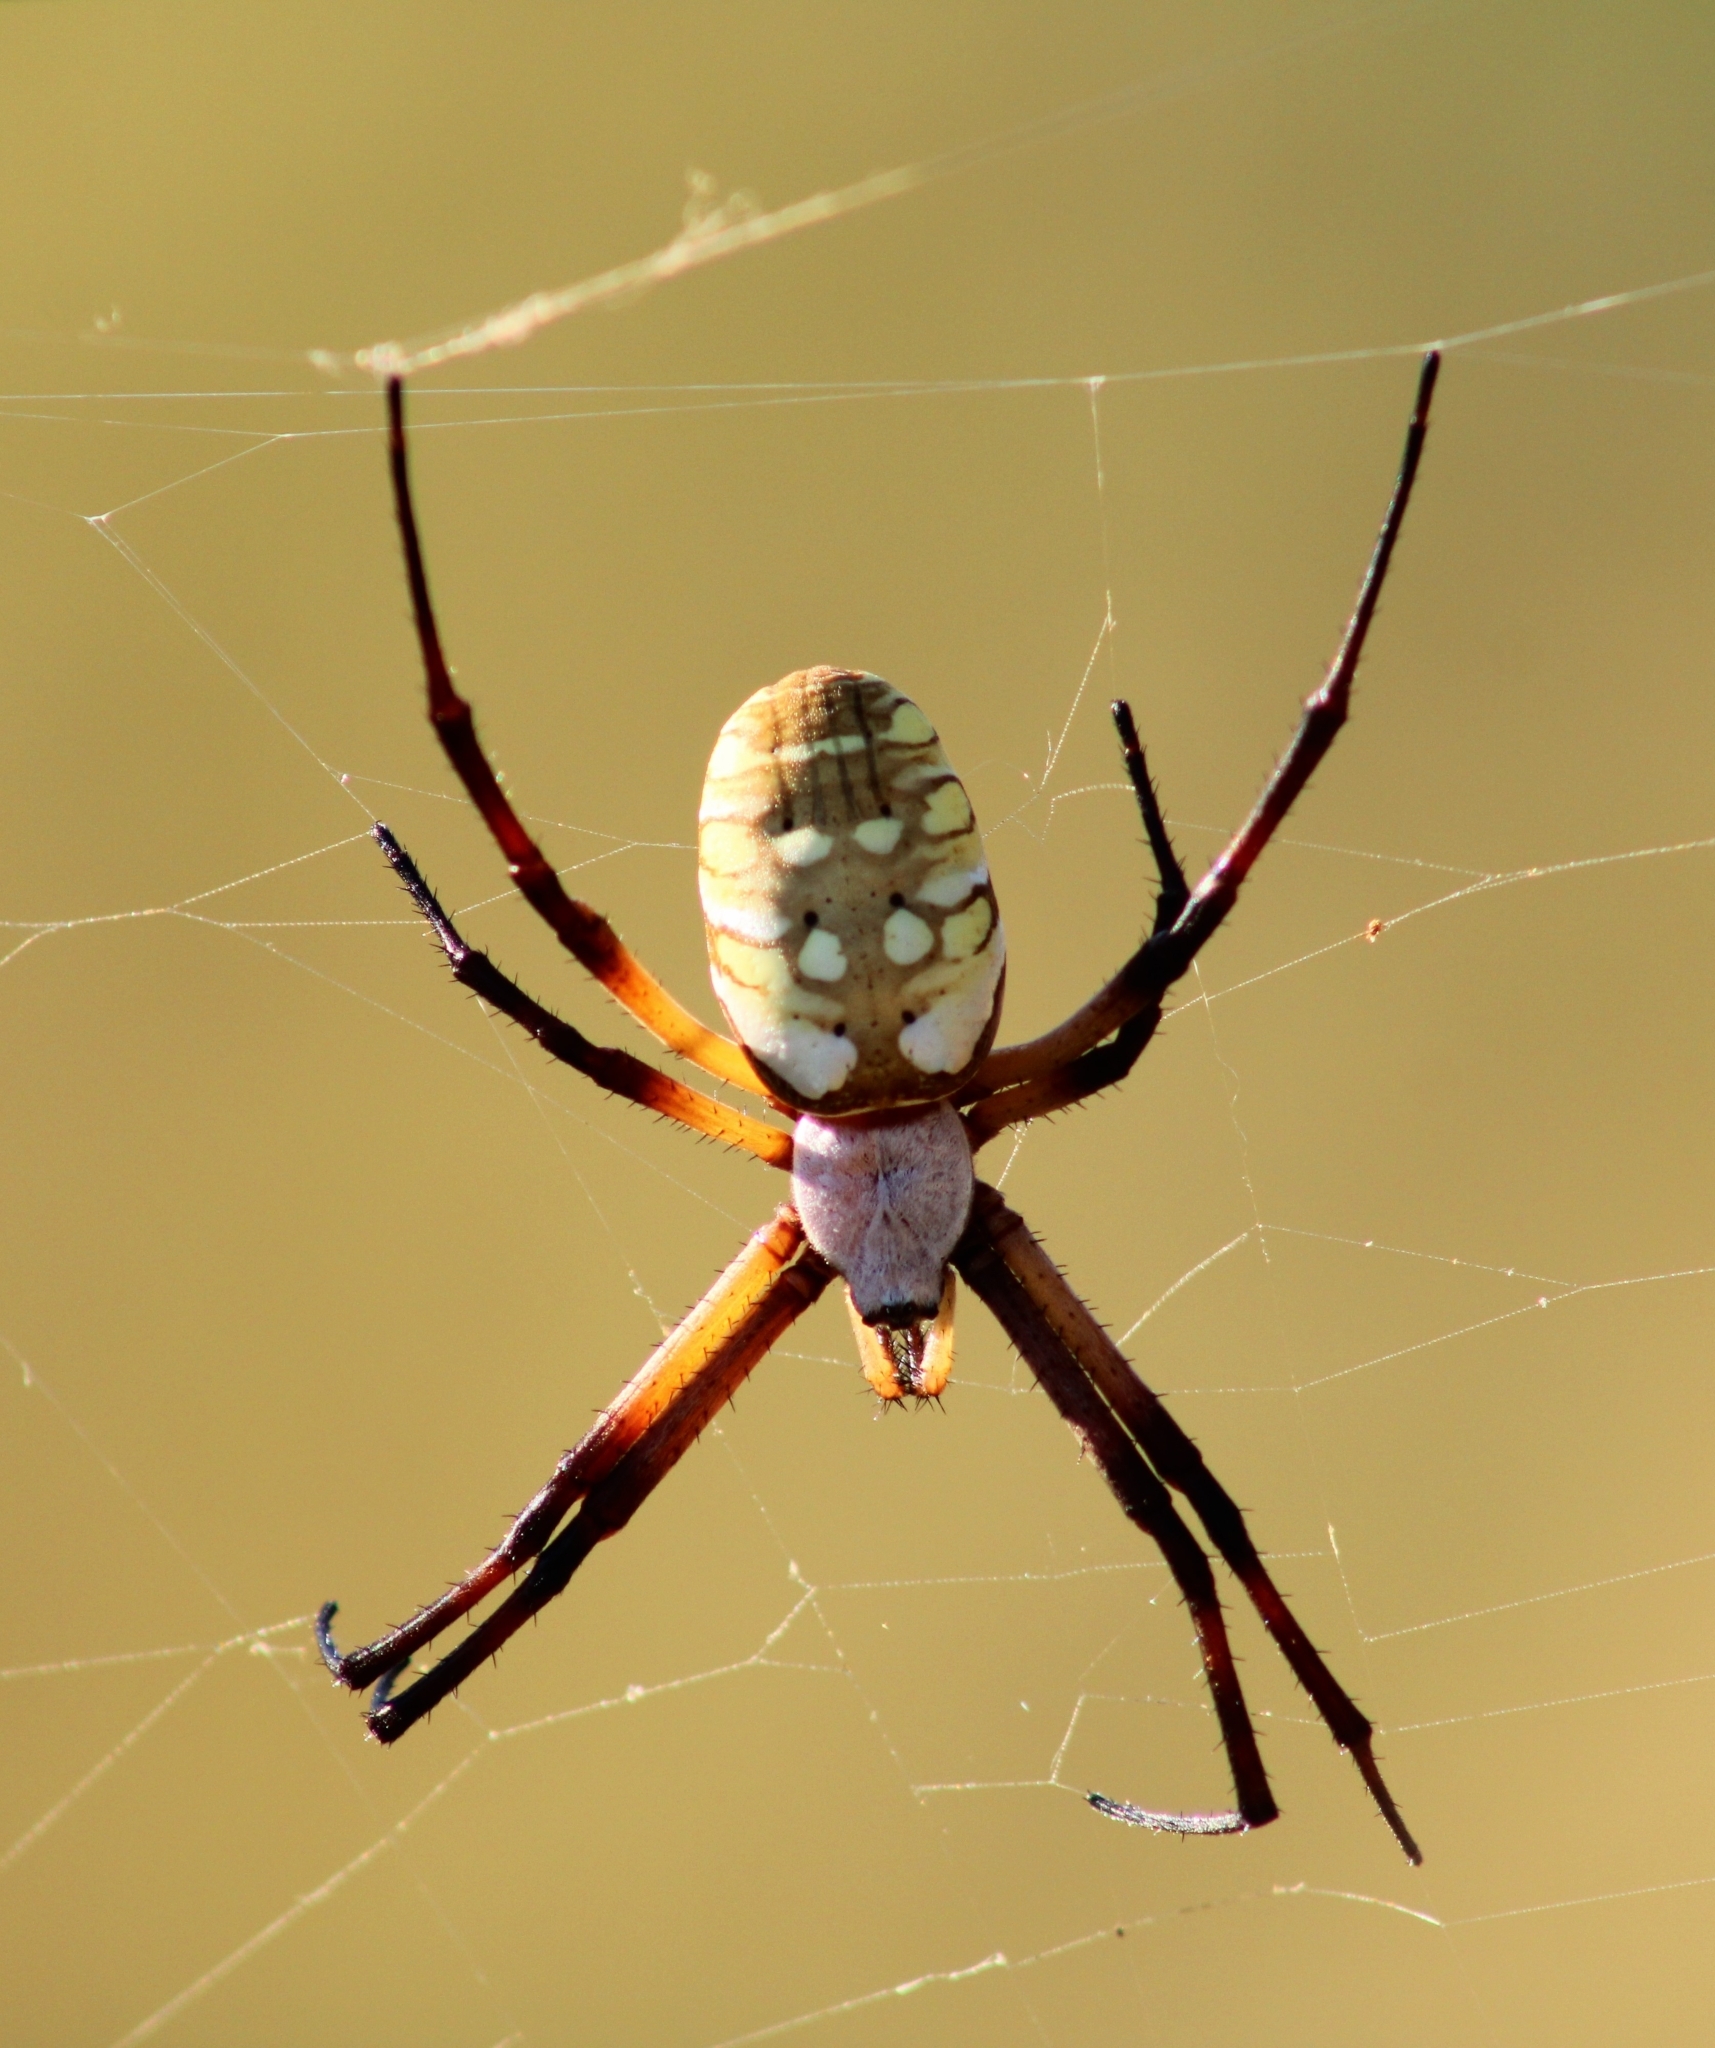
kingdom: Animalia
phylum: Arthropoda
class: Arachnida
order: Araneae
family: Araneidae
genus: Argiope
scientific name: Argiope aurantia
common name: Orb weavers
